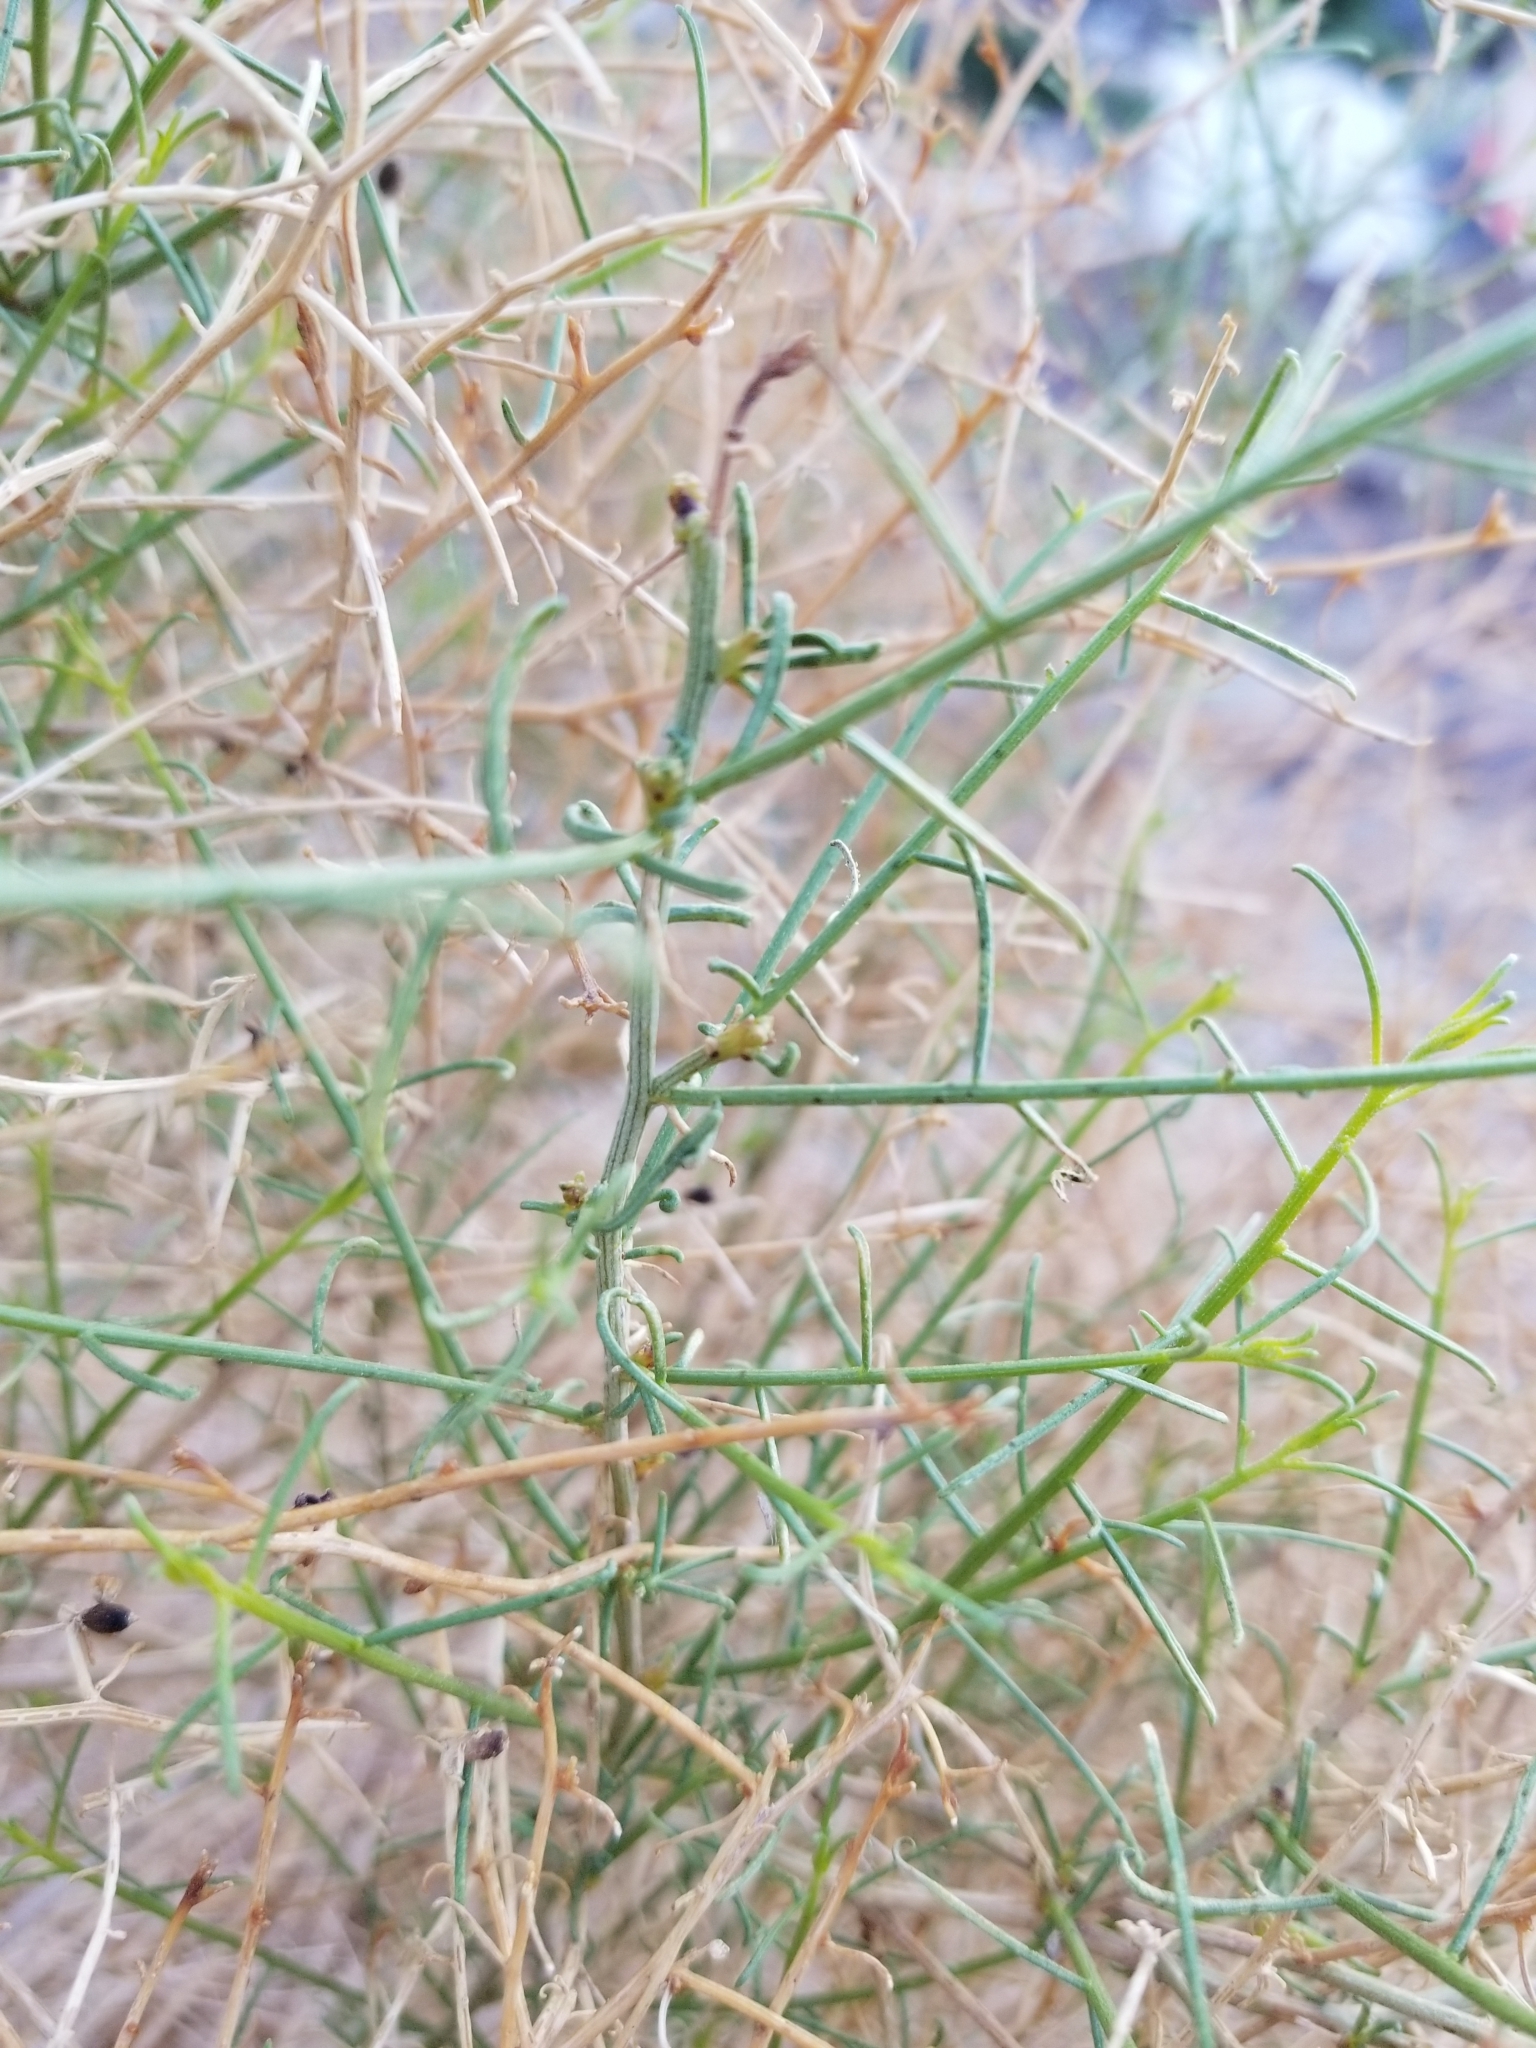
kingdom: Plantae
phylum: Tracheophyta
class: Magnoliopsida
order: Asterales
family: Asteraceae
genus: Ambrosia
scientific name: Ambrosia salsola
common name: Burrobrush
